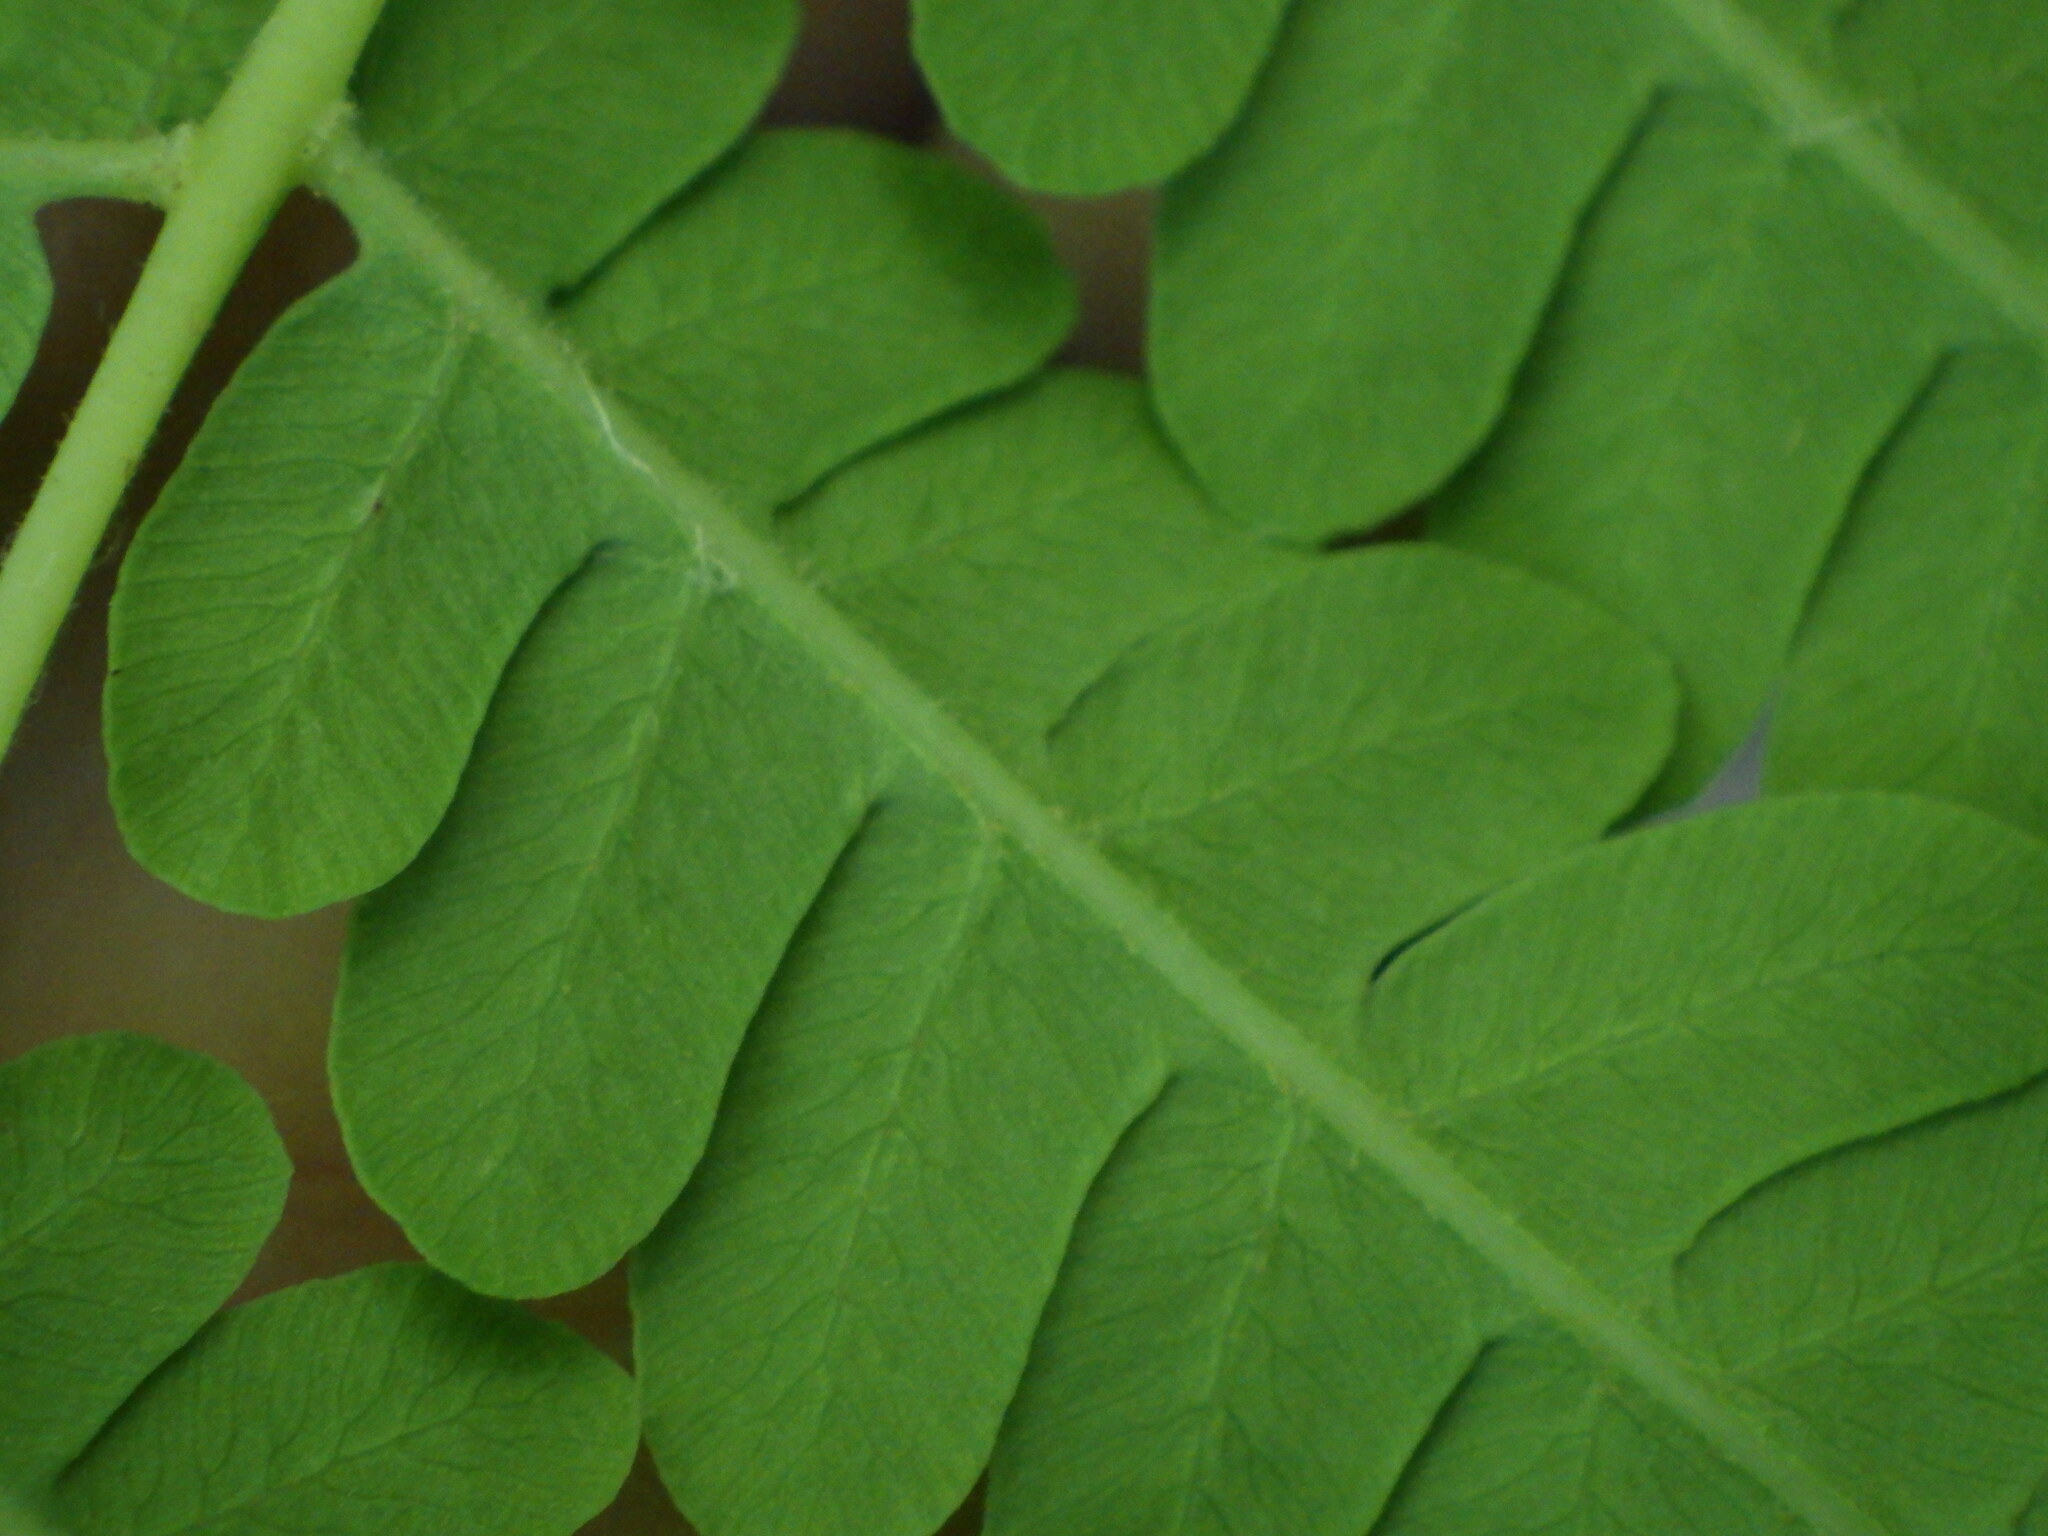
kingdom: Plantae
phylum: Tracheophyta
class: Polypodiopsida
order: Osmundales
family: Osmundaceae
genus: Claytosmunda
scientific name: Claytosmunda claytoniana
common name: Clayton's fern
